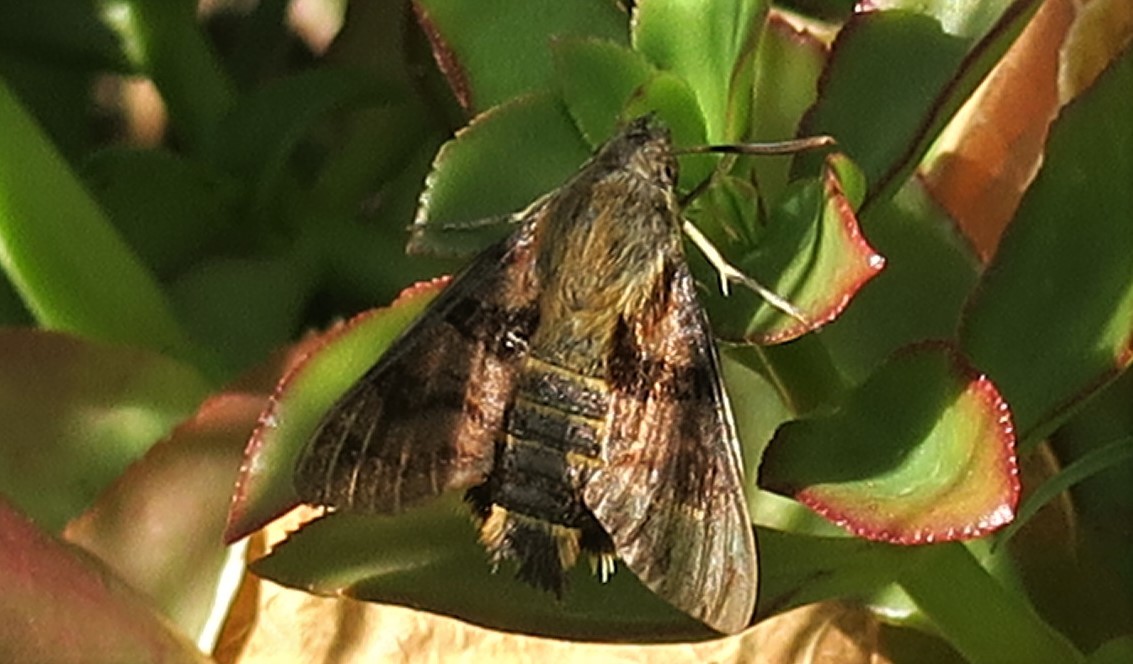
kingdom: Animalia
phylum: Arthropoda
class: Insecta
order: Lepidoptera
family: Sphingidae
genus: Macroglossum
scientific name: Macroglossum trochilus
